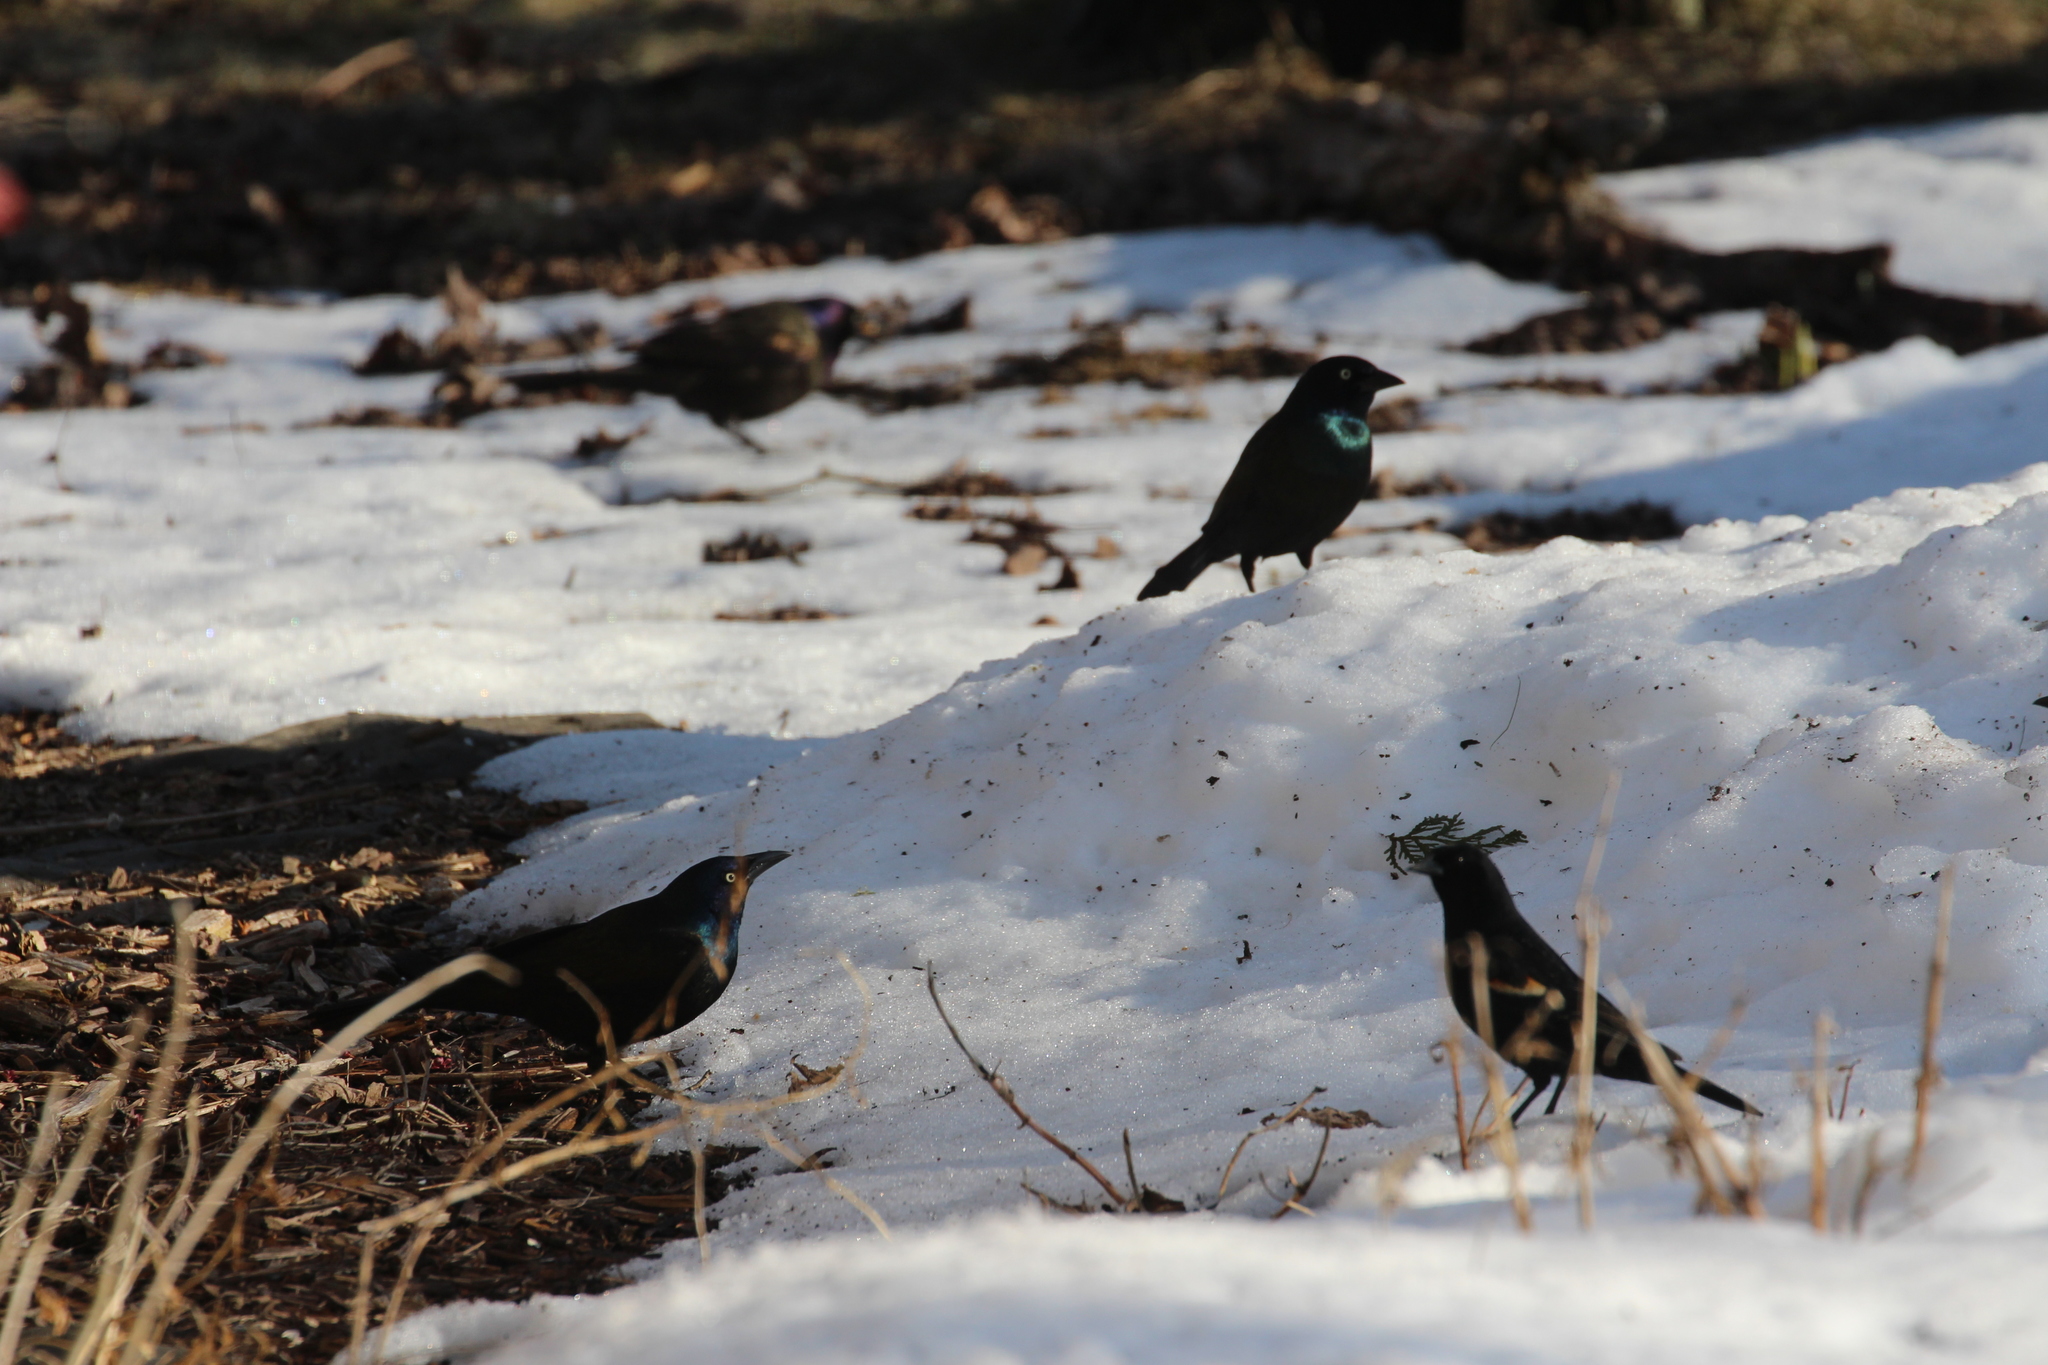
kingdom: Animalia
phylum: Chordata
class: Aves
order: Passeriformes
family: Icteridae
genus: Agelaius
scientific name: Agelaius phoeniceus
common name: Red-winged blackbird
